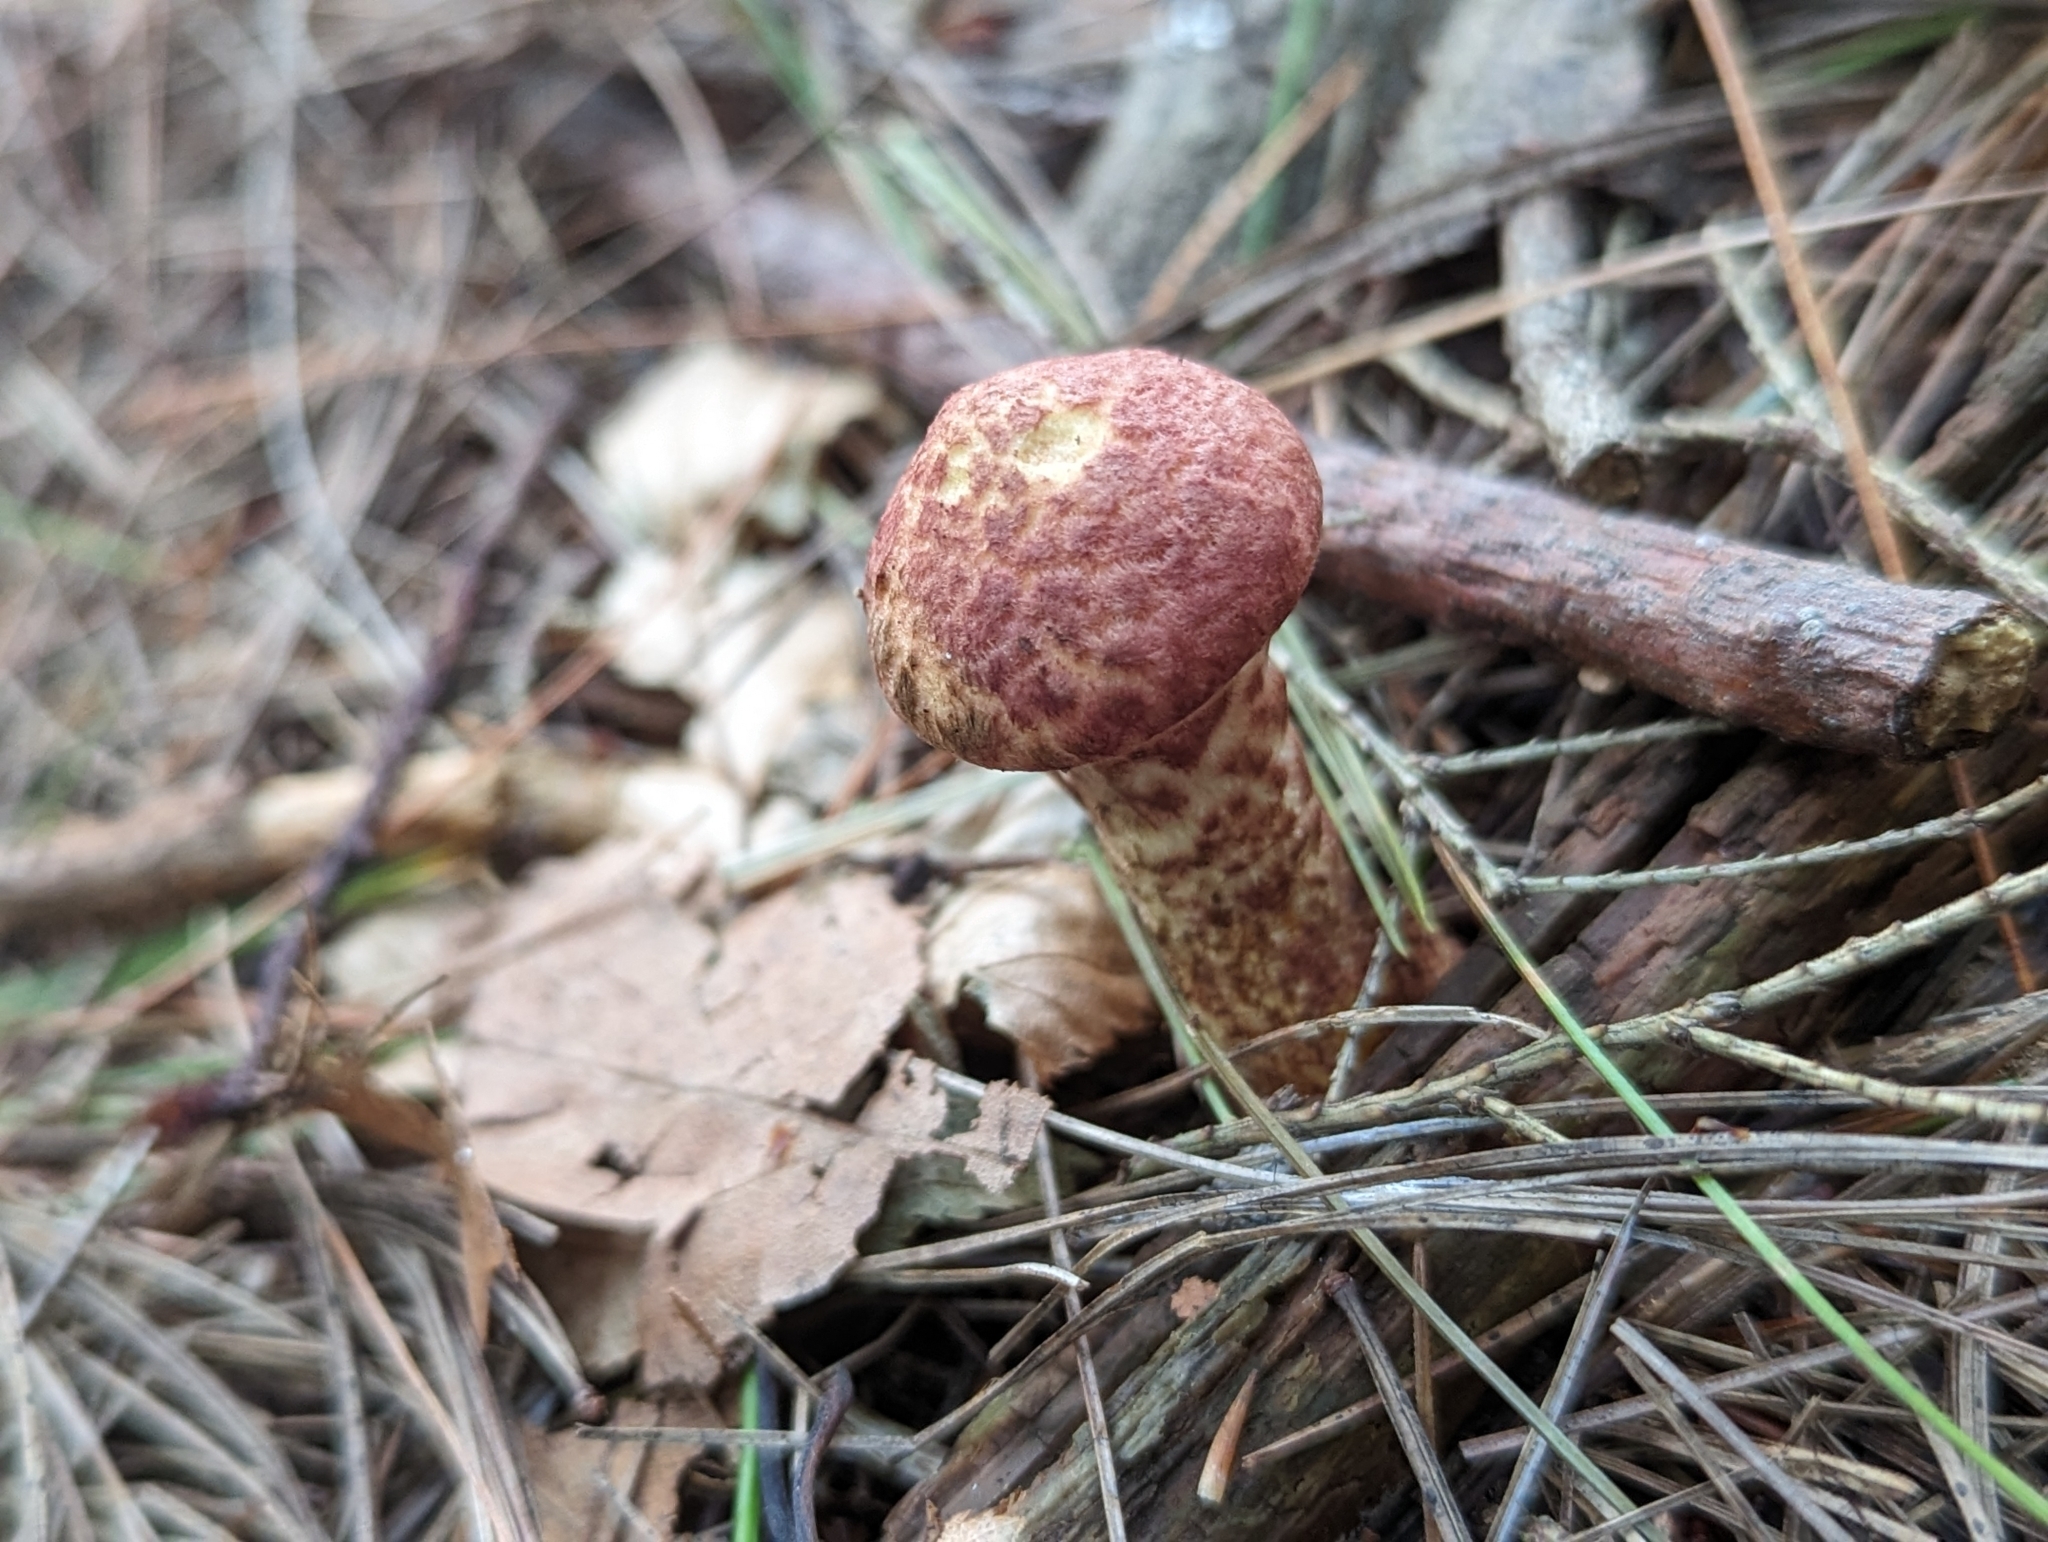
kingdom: Fungi
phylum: Basidiomycota
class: Agaricomycetes
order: Boletales
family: Suillaceae
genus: Suillus
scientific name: Suillus spraguei
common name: Painted suillus
